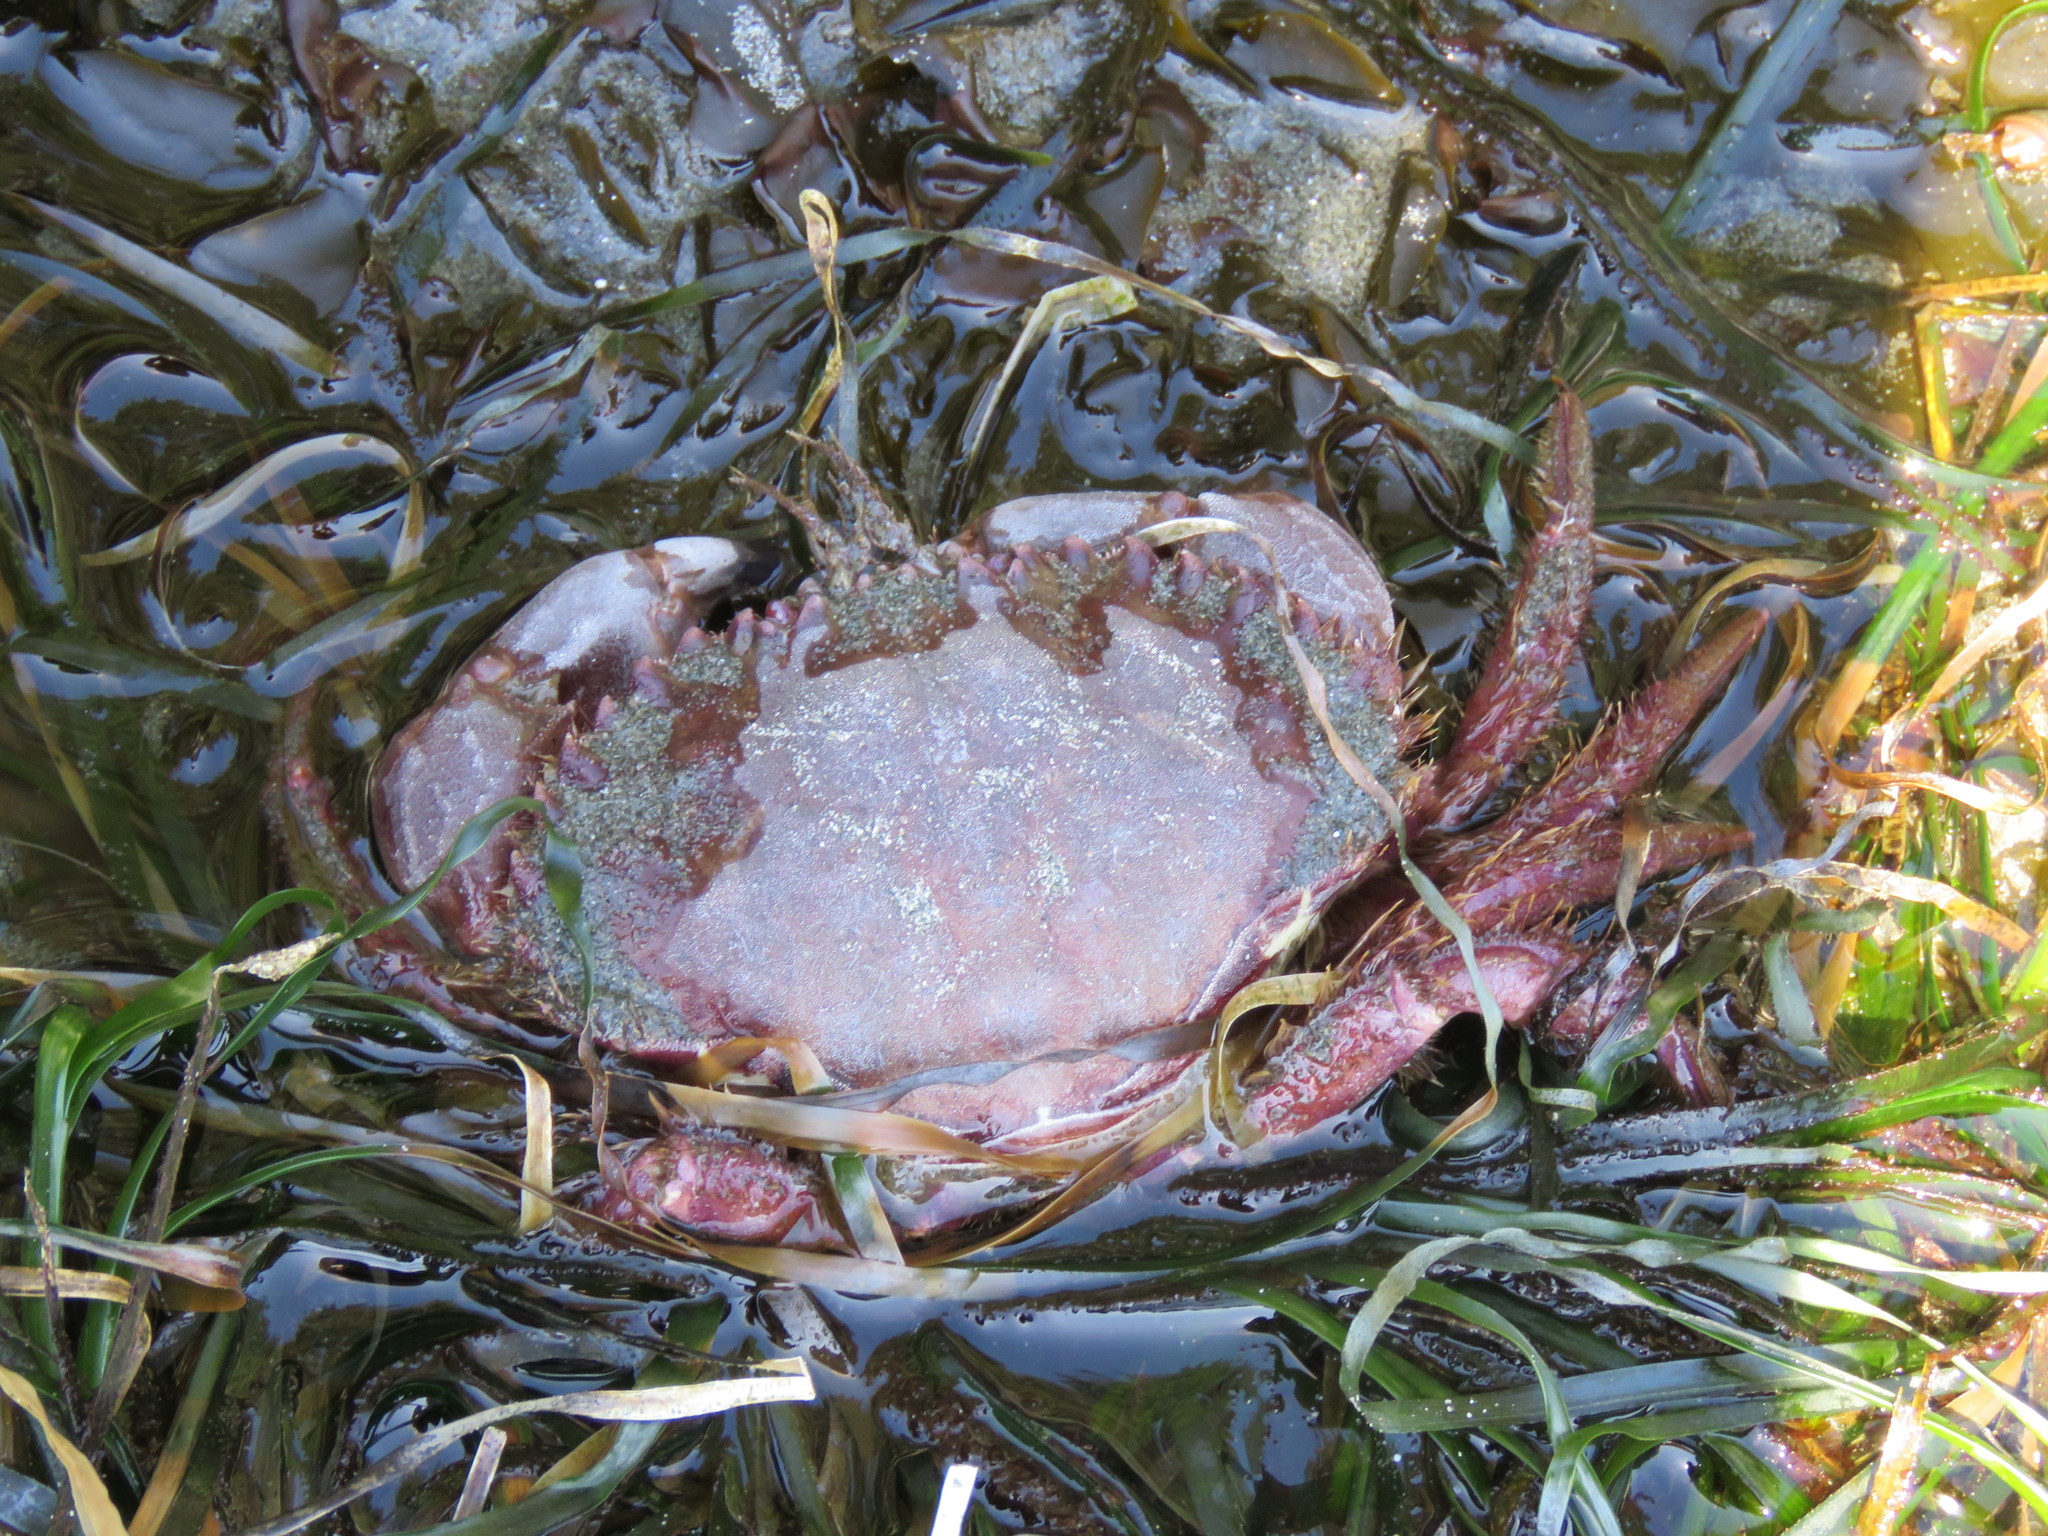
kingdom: Animalia
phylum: Arthropoda
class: Malacostraca
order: Decapoda
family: Cancridae
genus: Romaleon
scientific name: Romaleon antennarium
